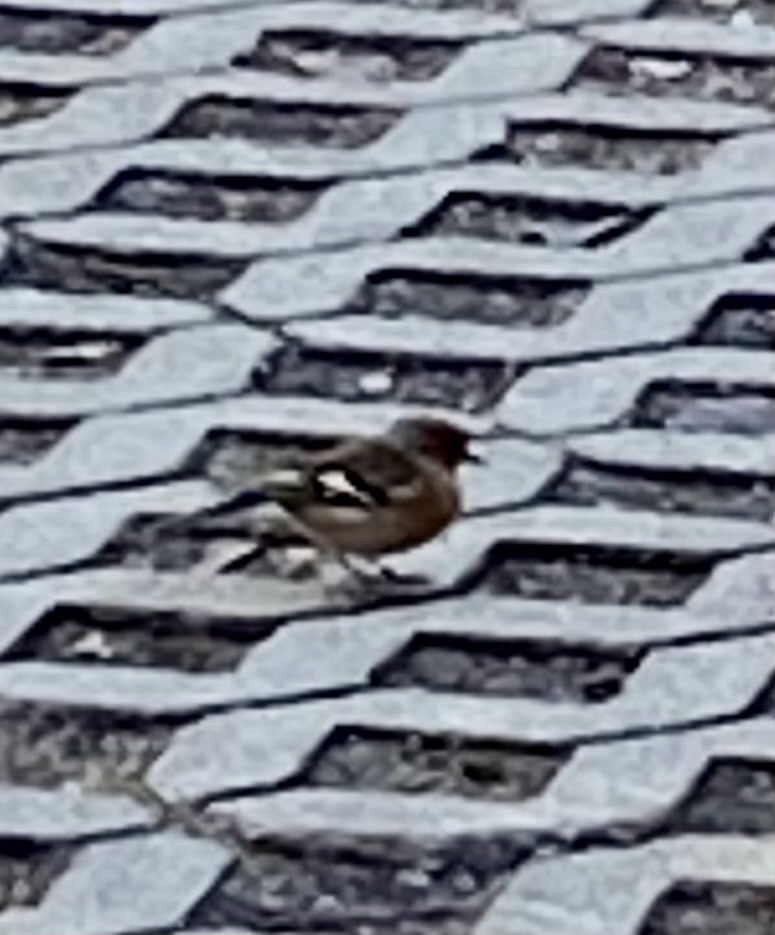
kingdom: Animalia
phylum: Chordata
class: Aves
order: Passeriformes
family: Fringillidae
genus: Fringilla
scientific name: Fringilla coelebs
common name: Common chaffinch
